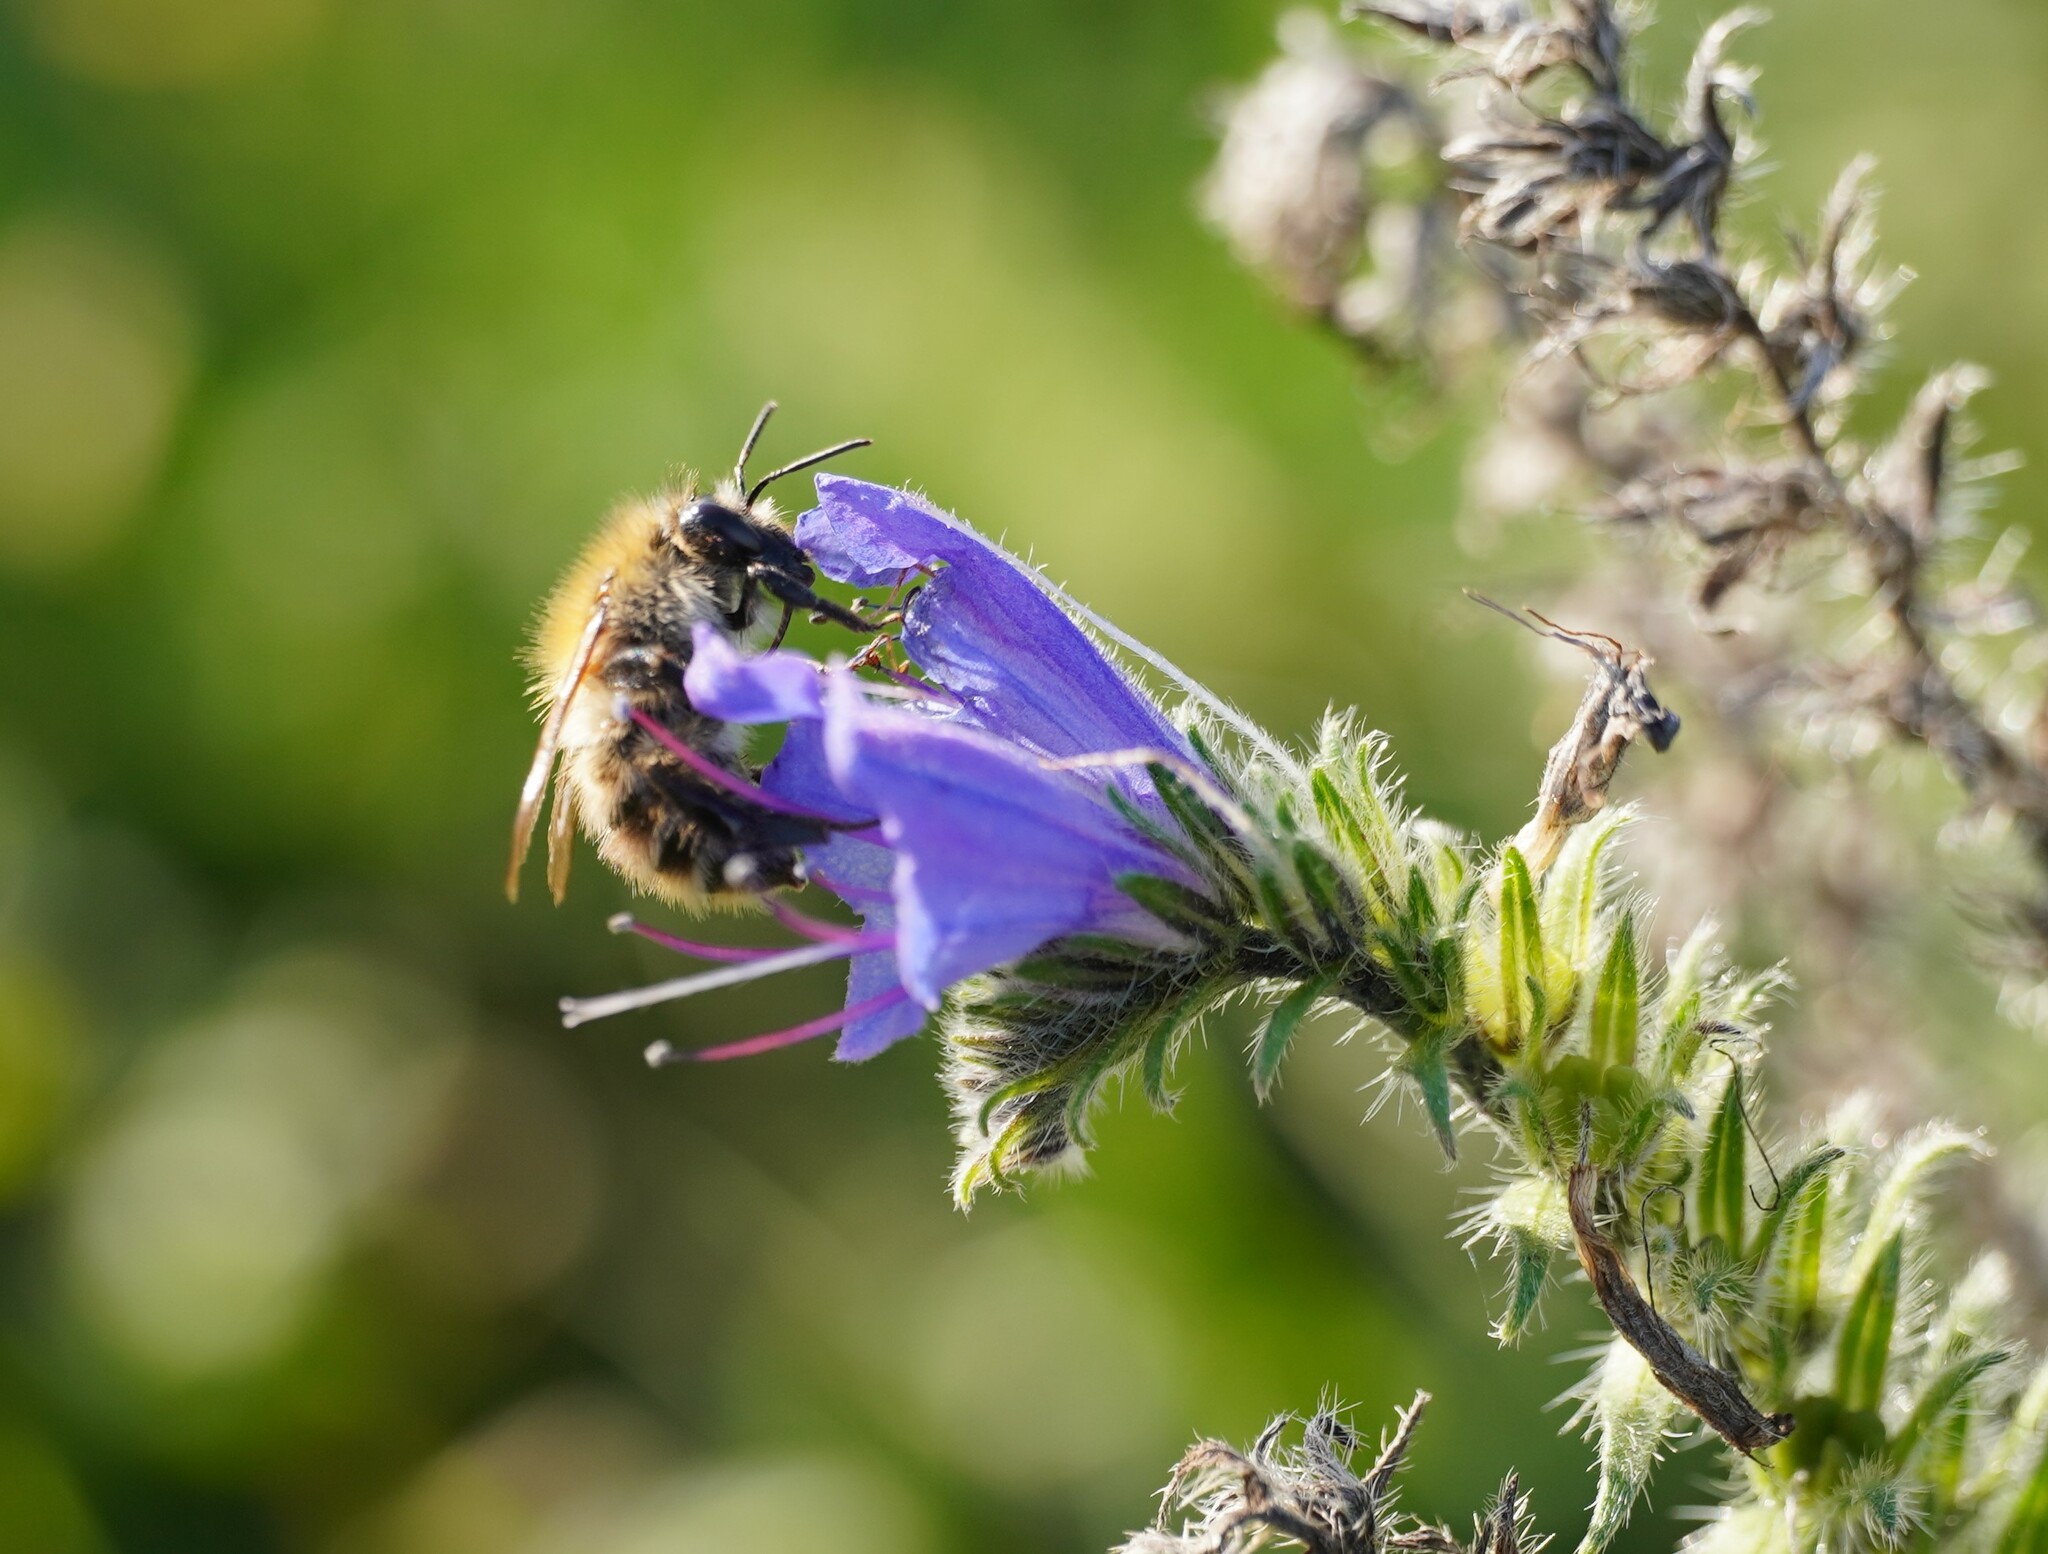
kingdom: Animalia
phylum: Arthropoda
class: Insecta
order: Hymenoptera
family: Apidae
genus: Bombus
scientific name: Bombus pascuorum
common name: Common carder bee
